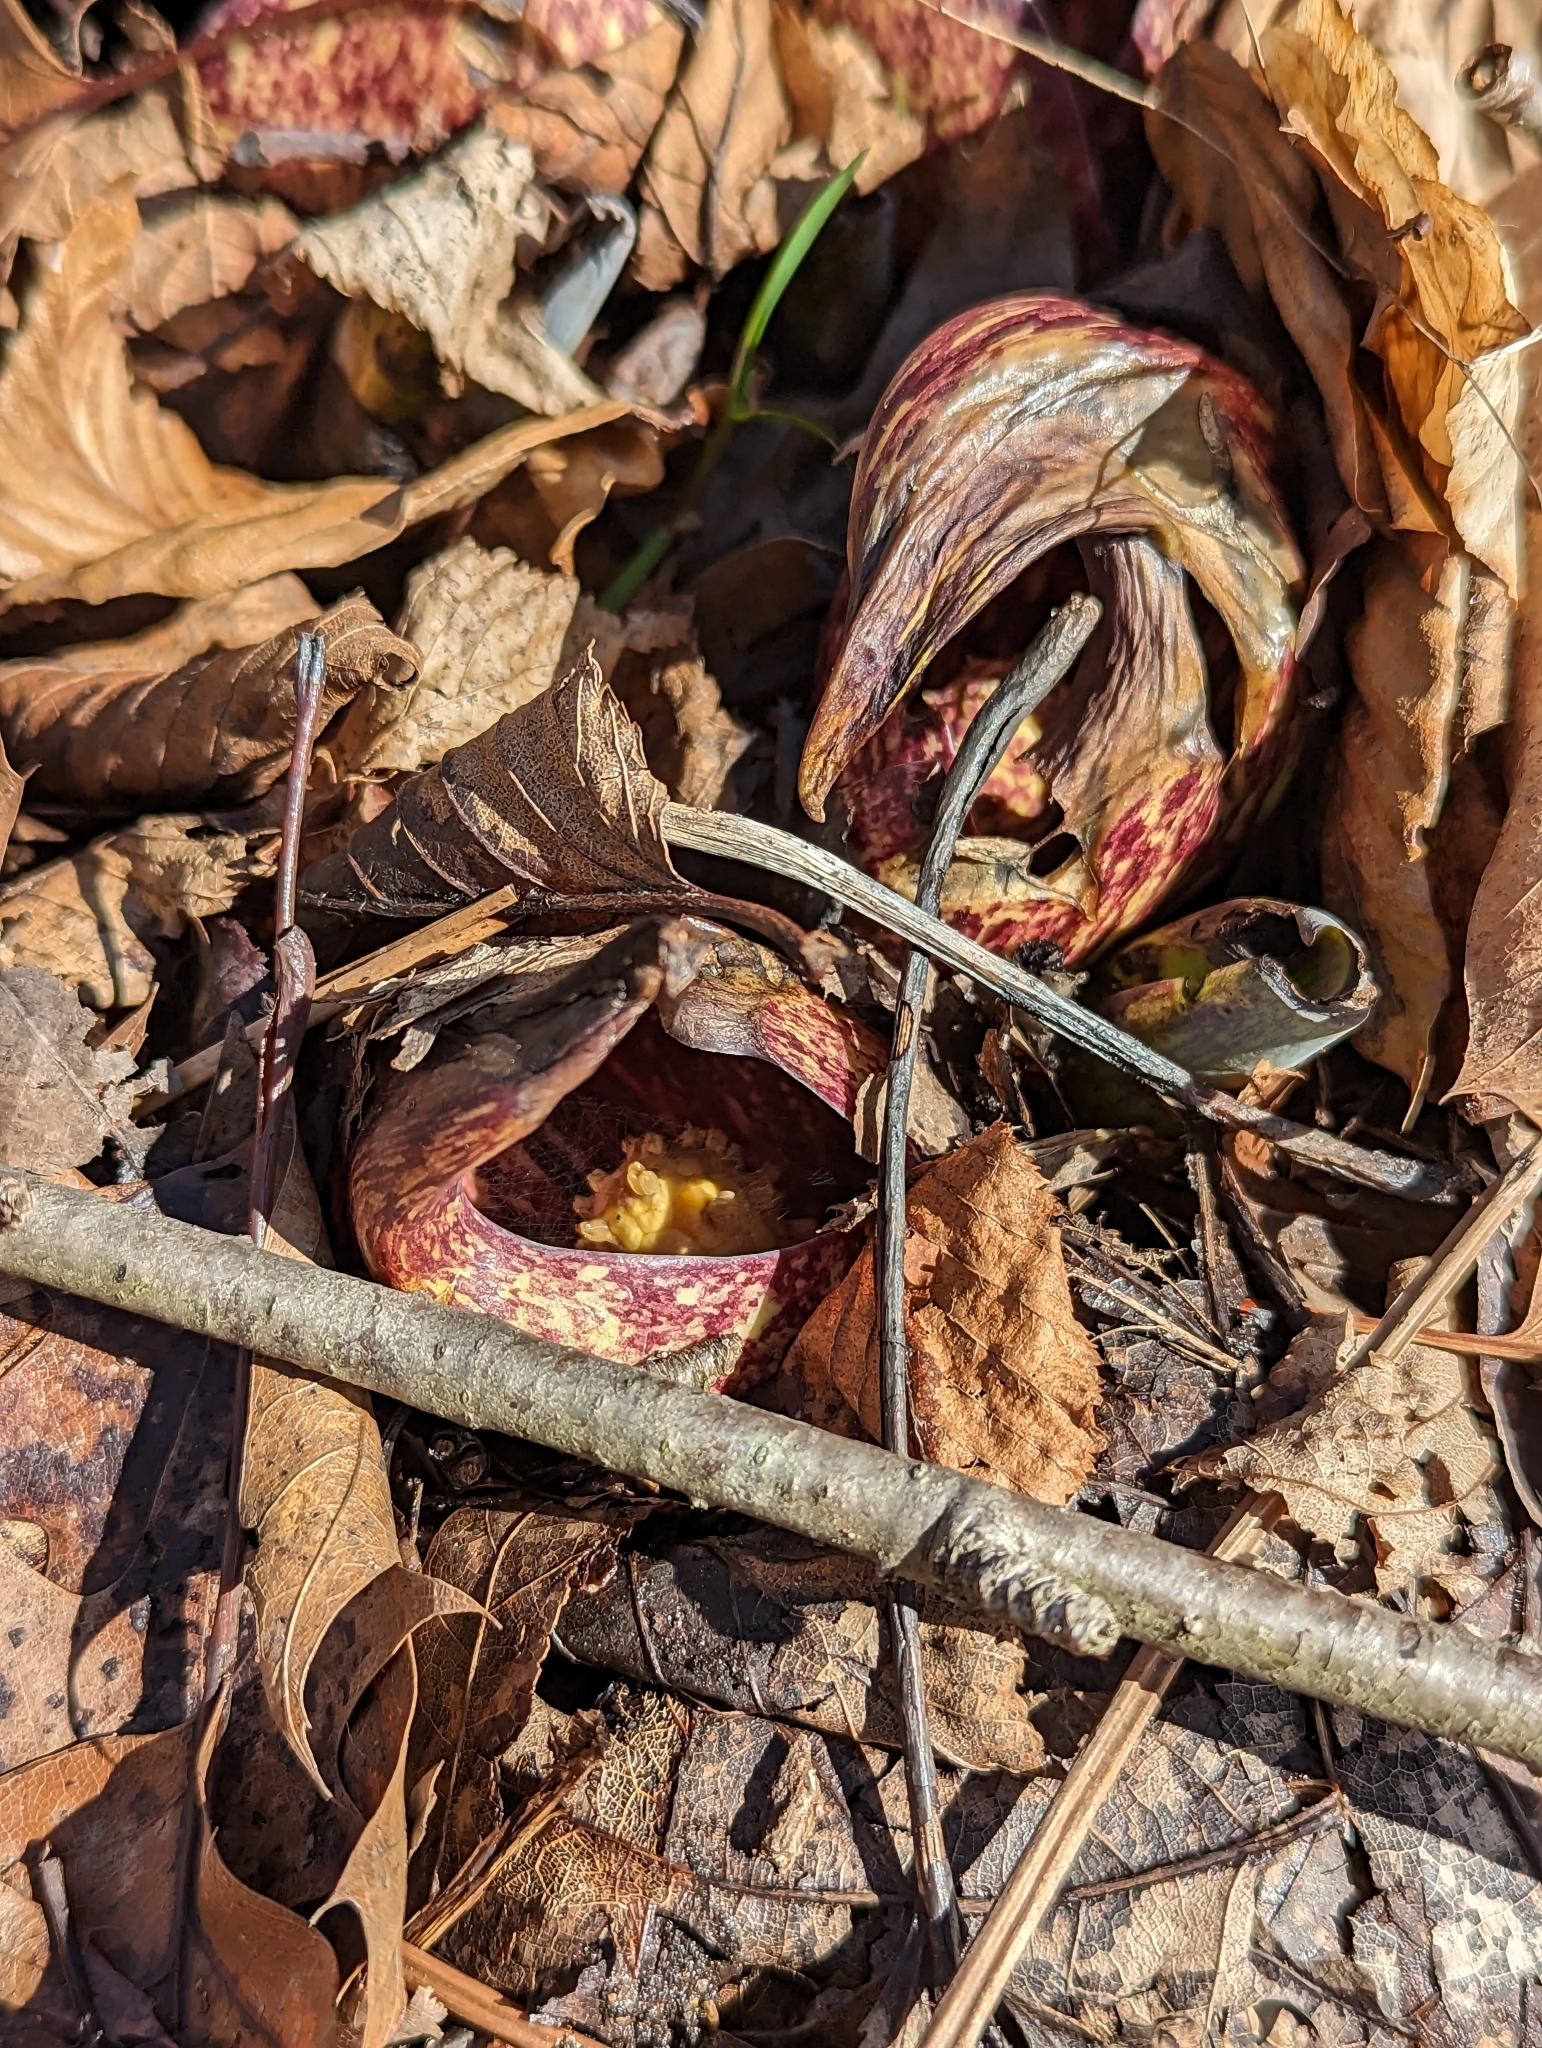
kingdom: Plantae
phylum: Tracheophyta
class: Liliopsida
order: Alismatales
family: Araceae
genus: Symplocarpus
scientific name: Symplocarpus foetidus
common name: Eastern skunk cabbage
